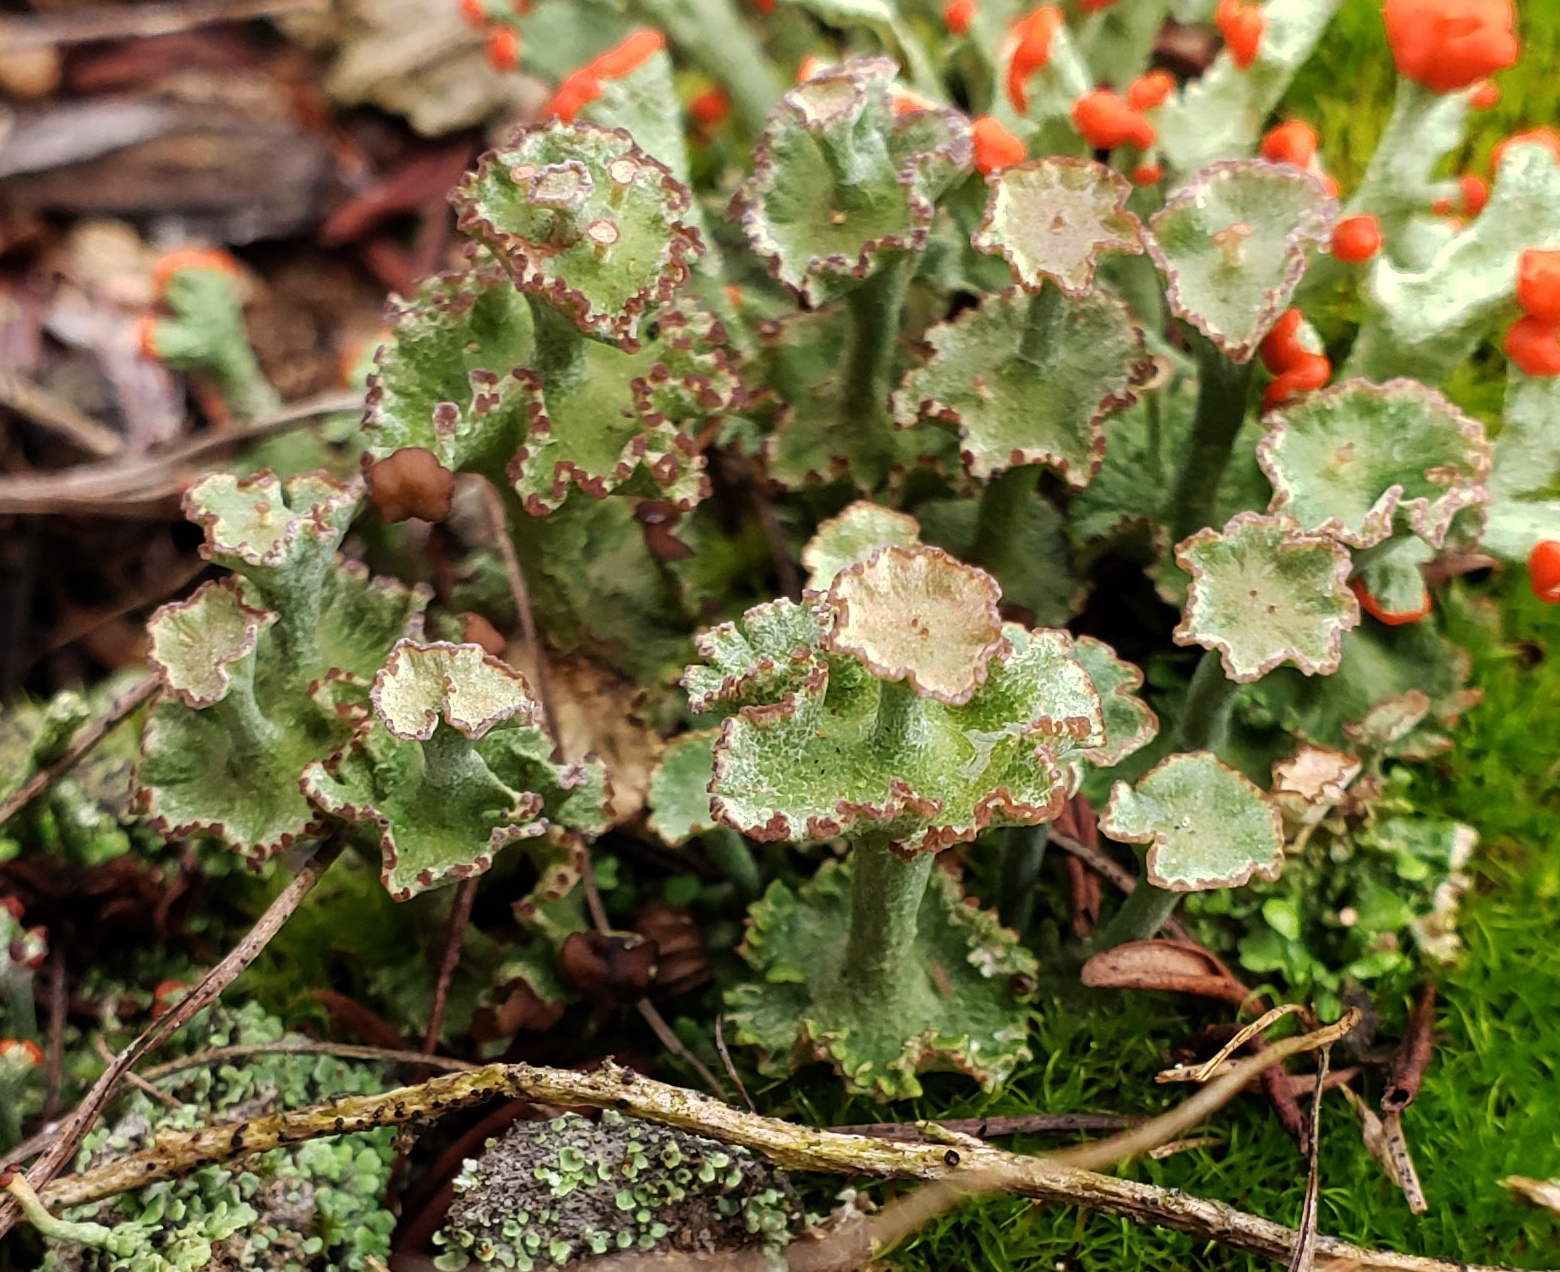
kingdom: Fungi
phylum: Ascomycota
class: Lecanoromycetes
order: Lecanorales
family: Cladoniaceae
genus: Cladonia
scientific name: Cladonia cervicornis
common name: Browned pixie-cup lichen
